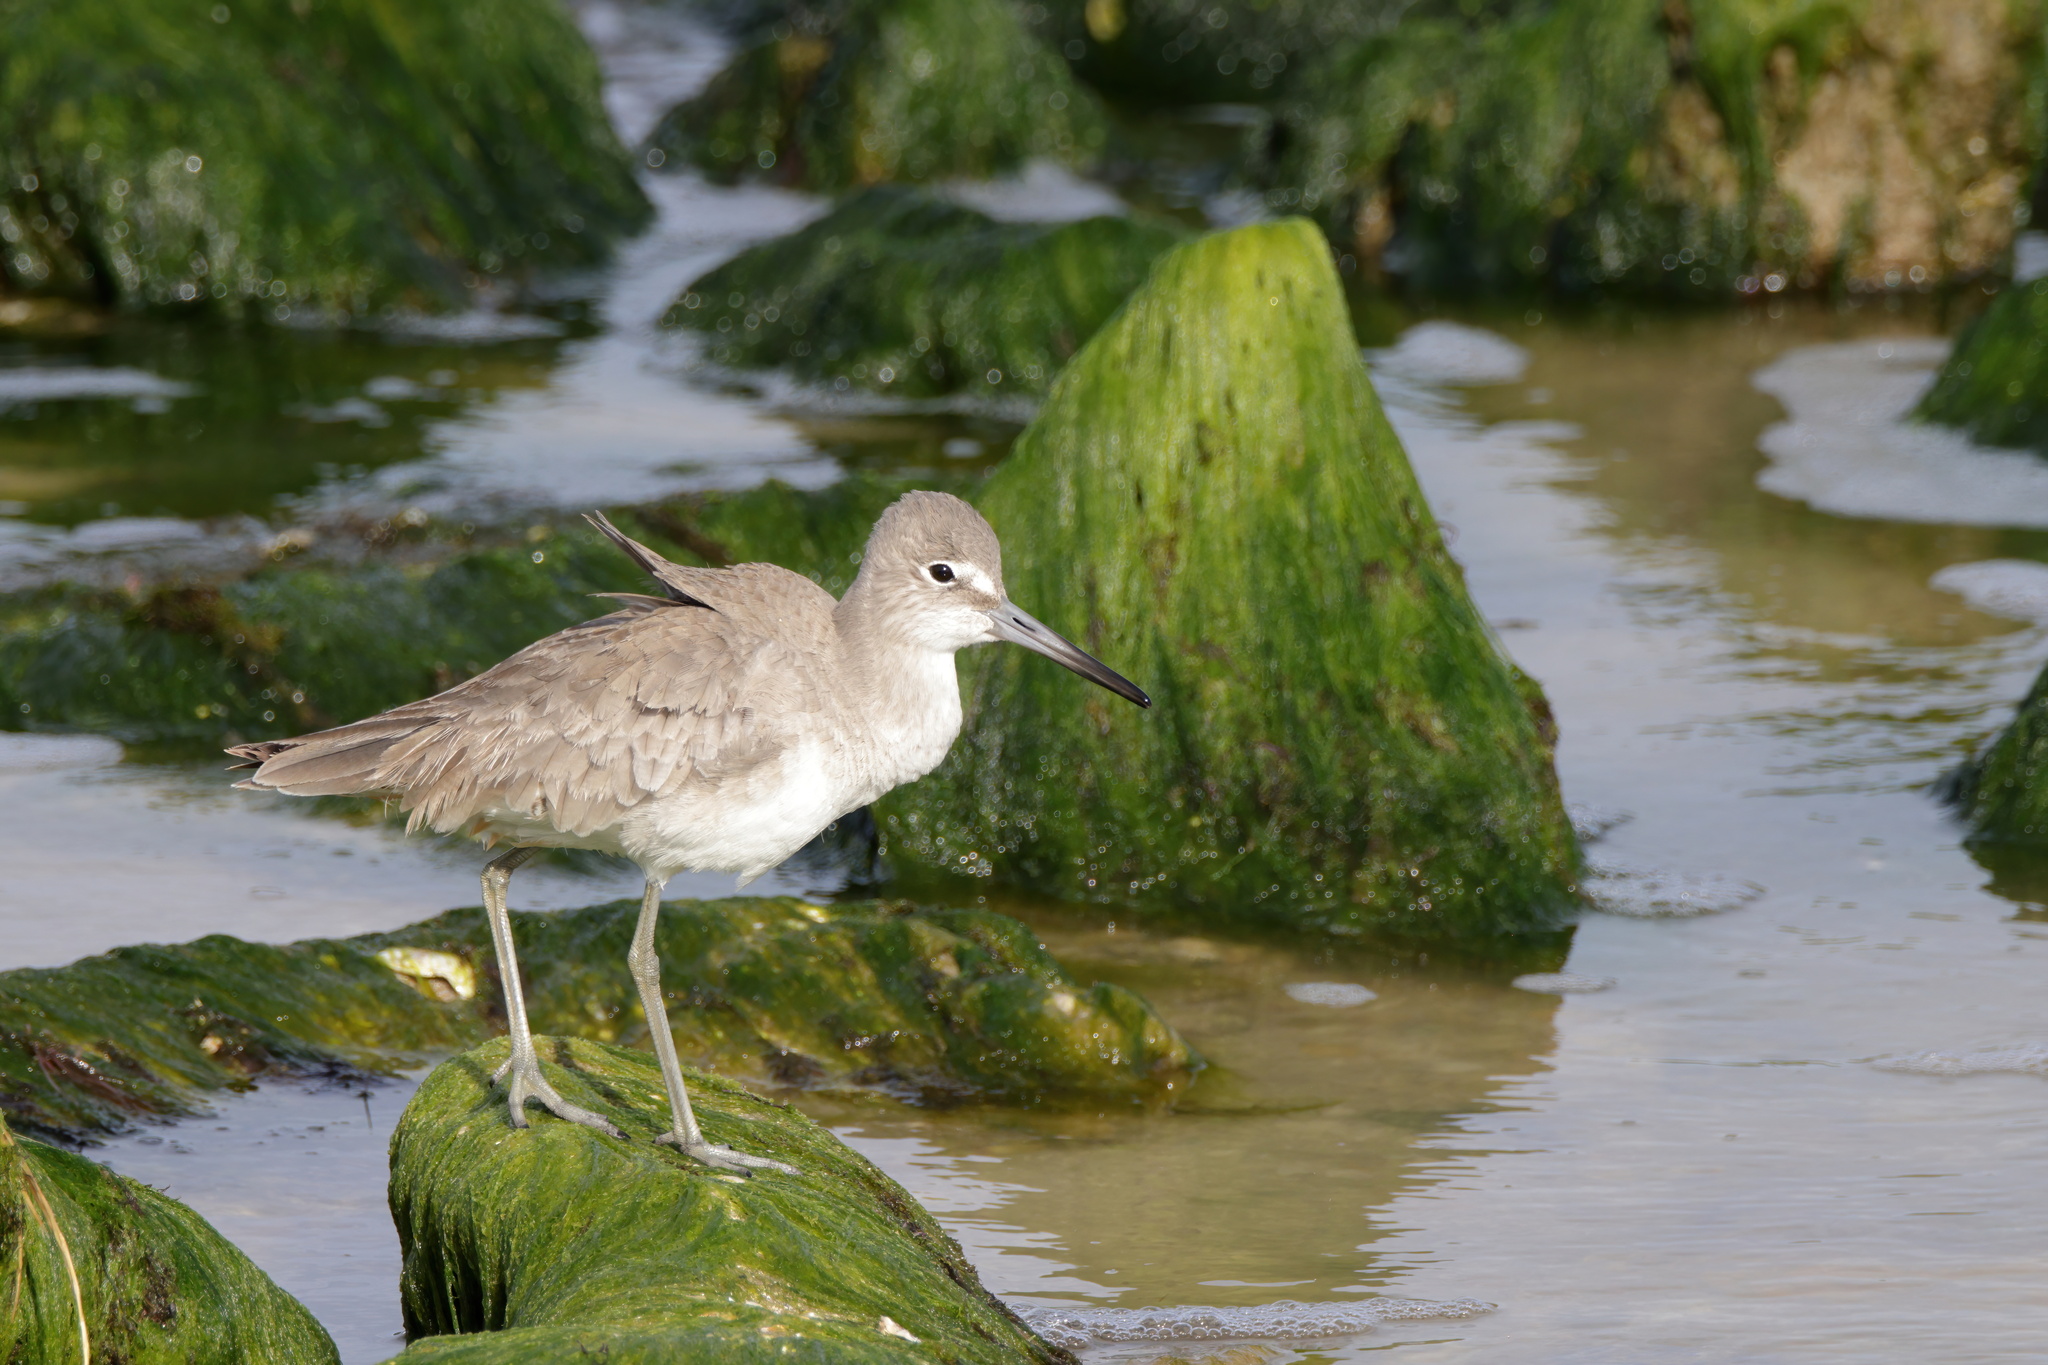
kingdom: Animalia
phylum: Chordata
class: Aves
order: Charadriiformes
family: Scolopacidae
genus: Tringa
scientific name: Tringa semipalmata
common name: Willet
